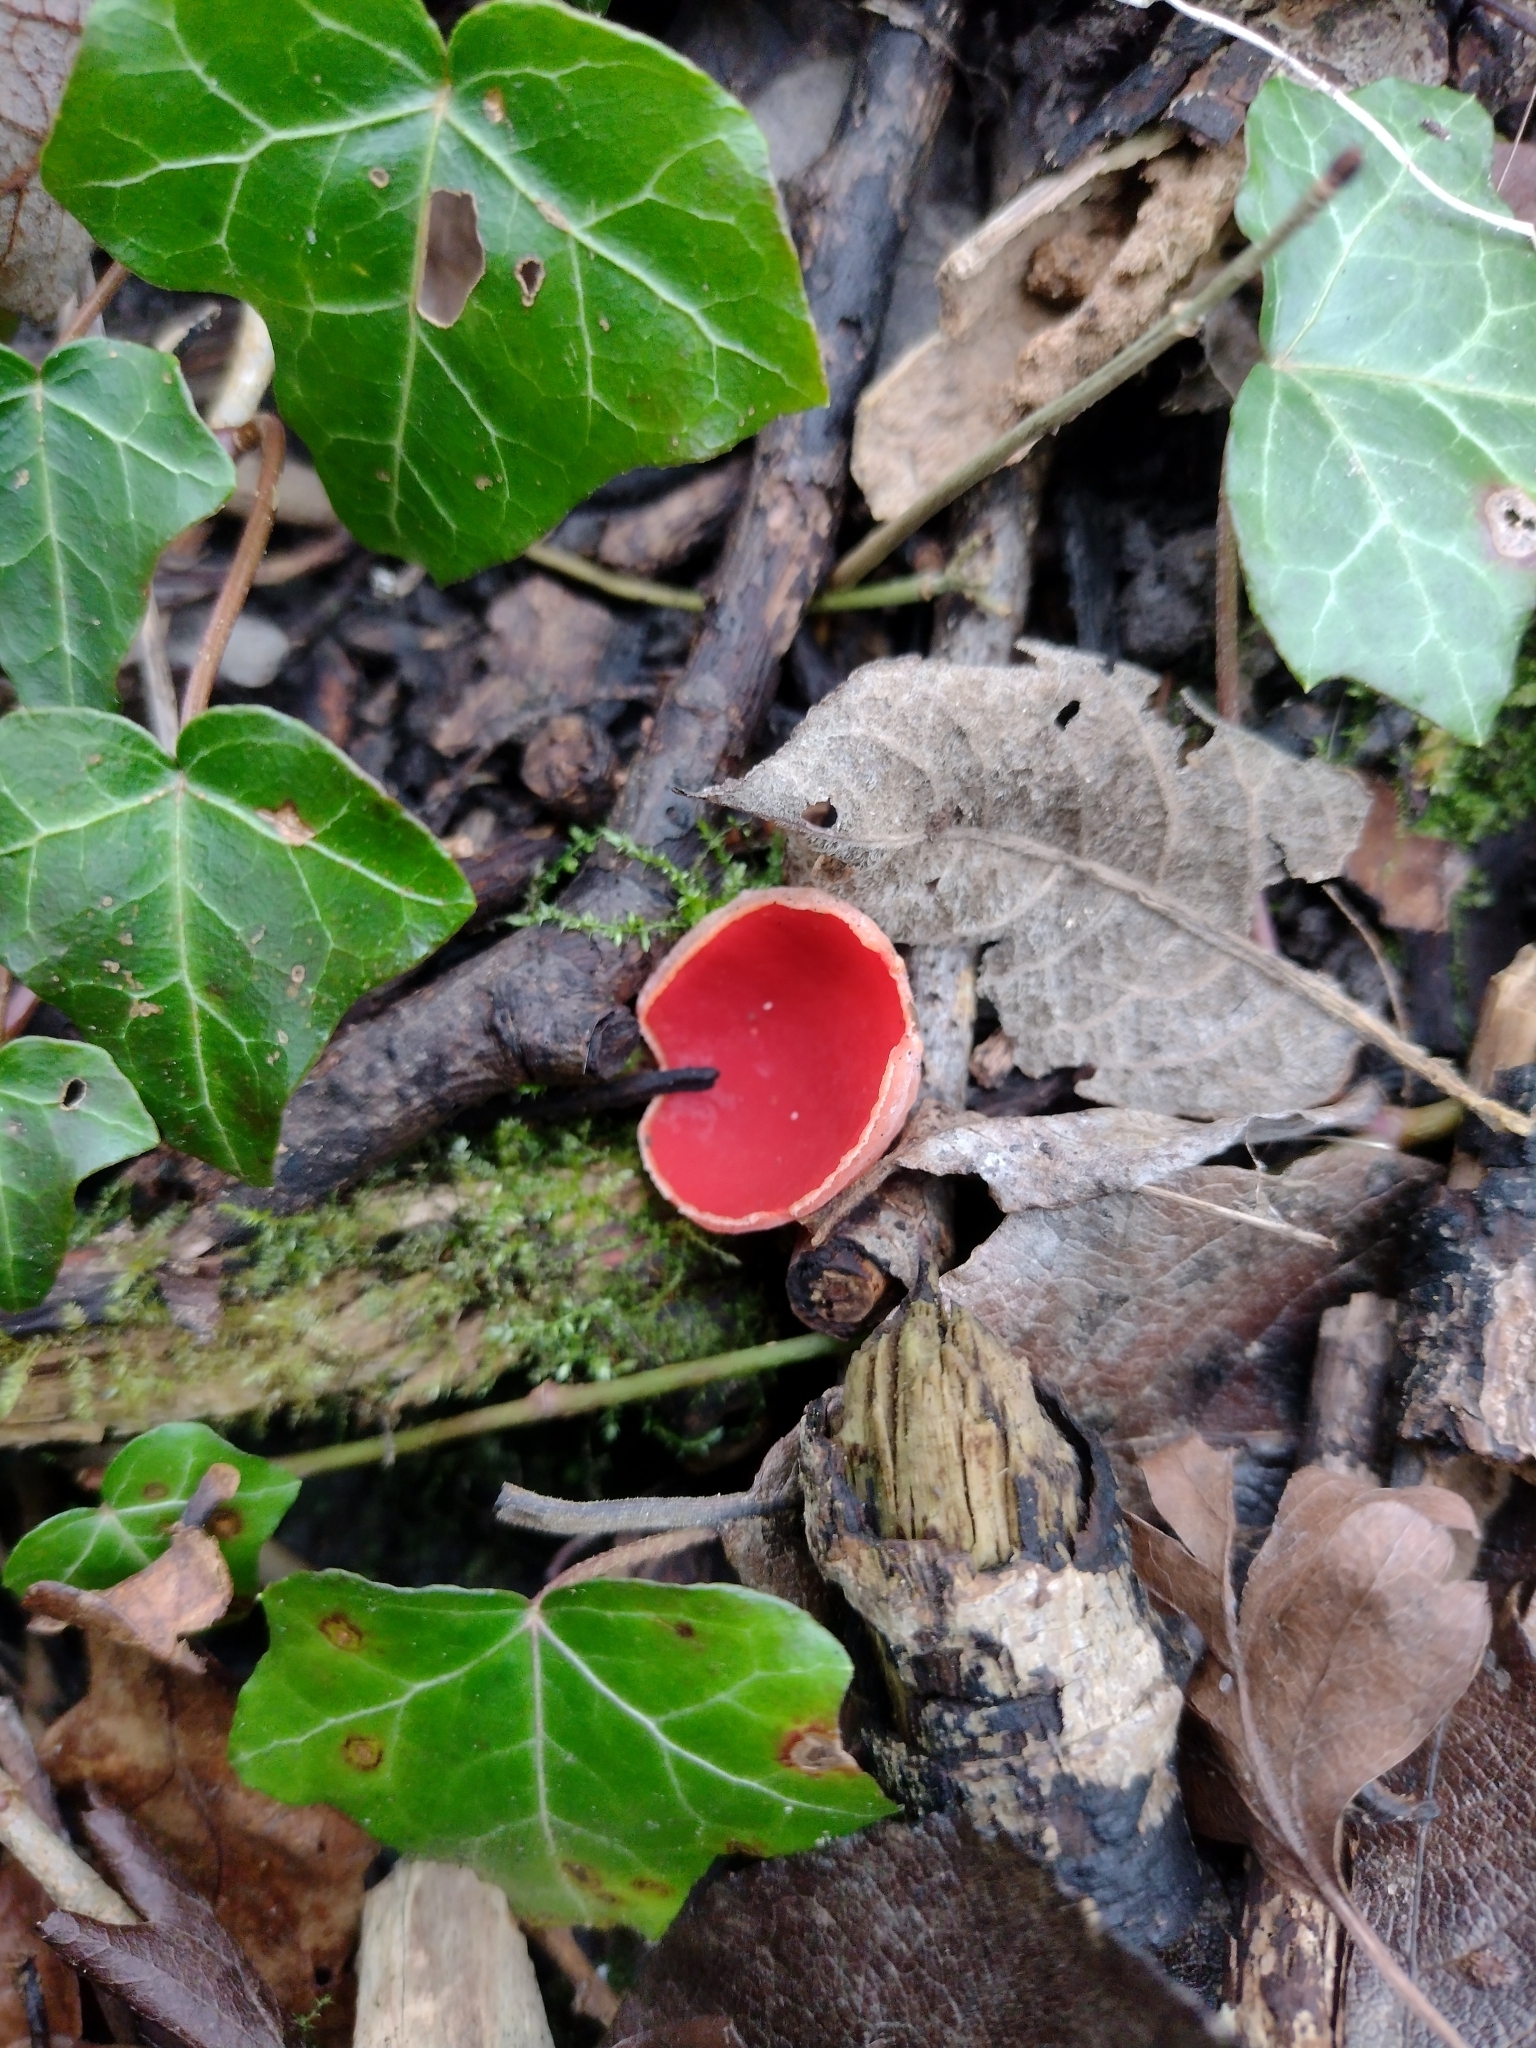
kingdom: Fungi
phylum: Ascomycota
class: Pezizomycetes
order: Pezizales
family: Sarcoscyphaceae
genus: Sarcoscypha
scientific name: Sarcoscypha
